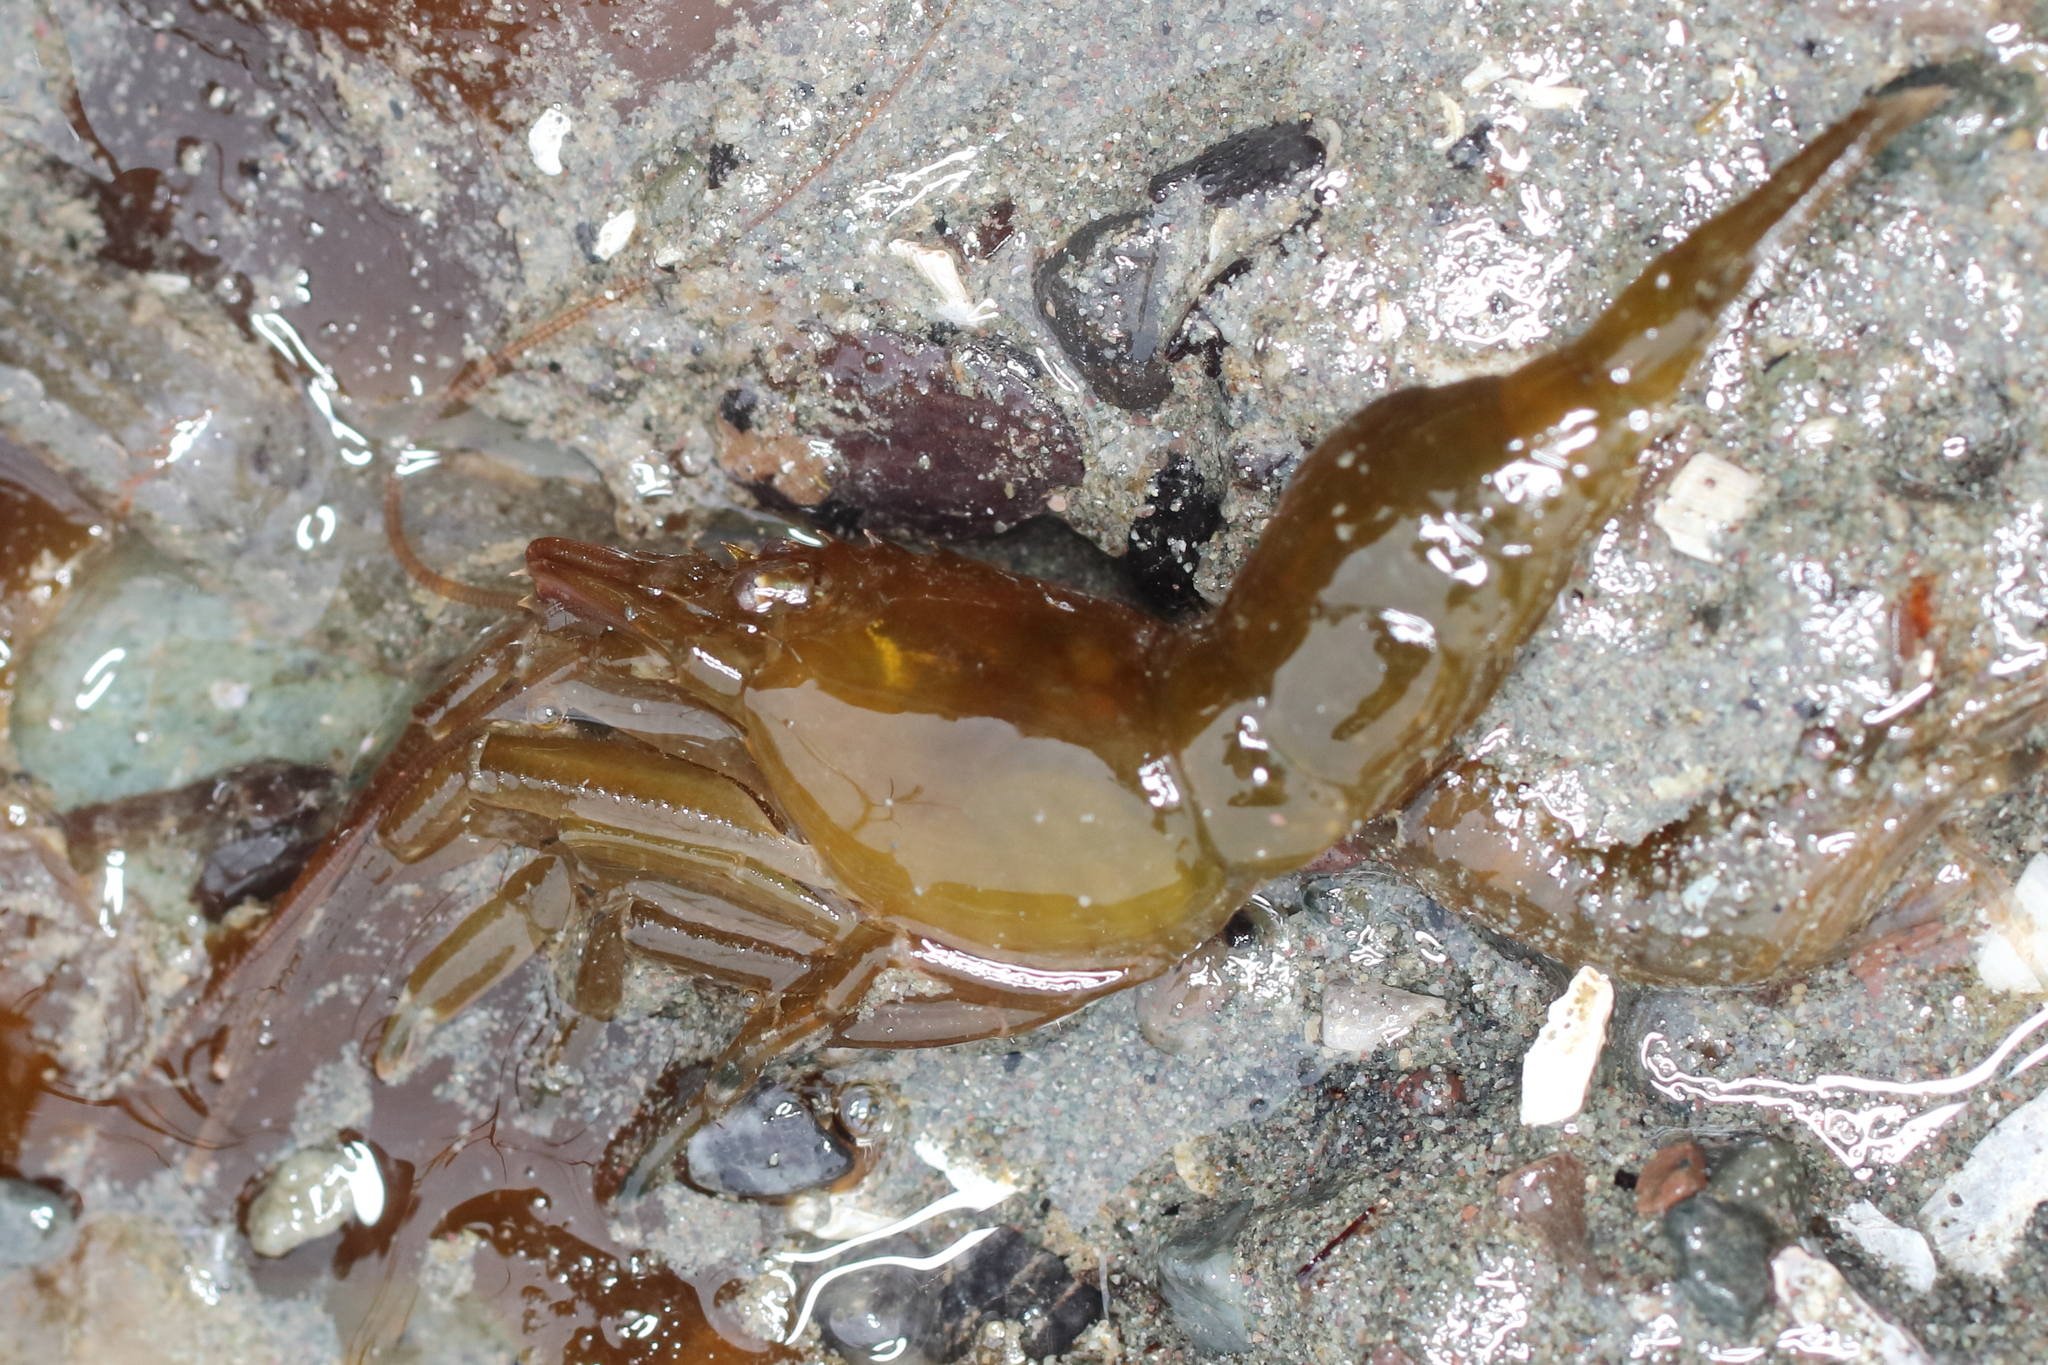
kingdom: Animalia
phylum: Arthropoda
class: Malacostraca
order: Decapoda
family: Thoridae
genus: Heptacarpus
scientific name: Heptacarpus brevirostris
